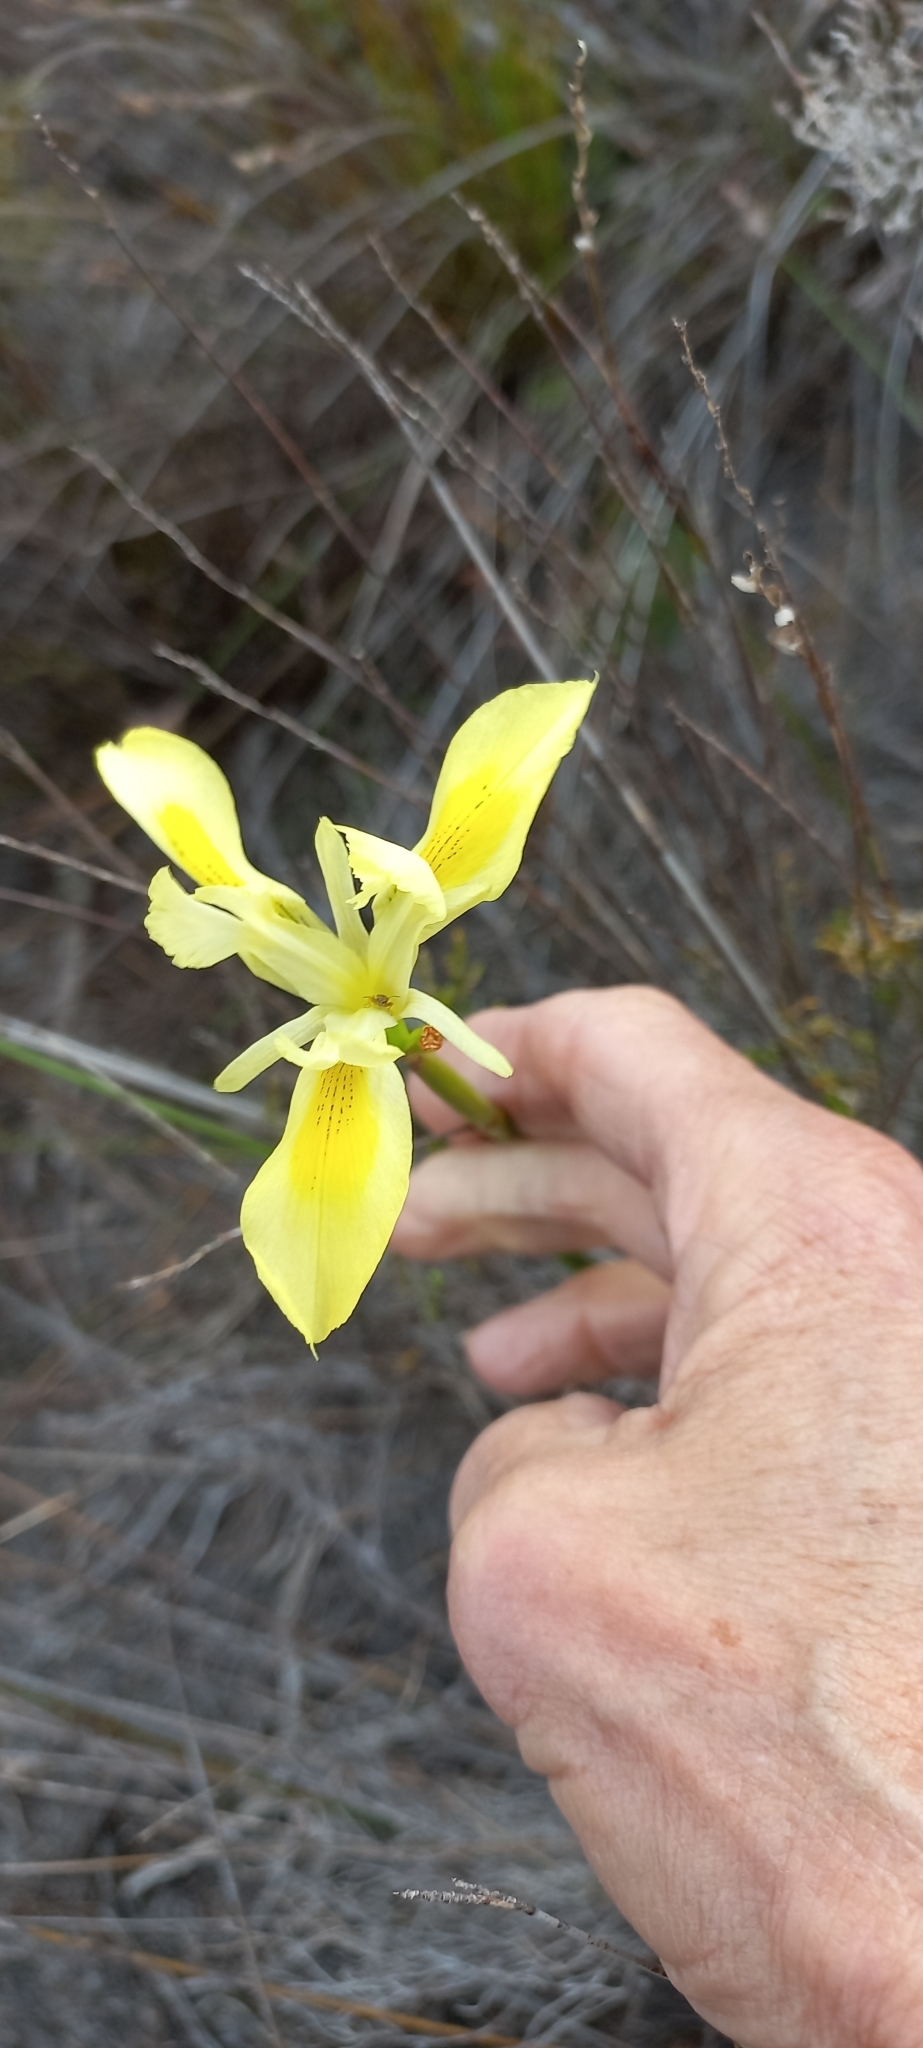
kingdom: Plantae
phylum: Tracheophyta
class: Liliopsida
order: Asparagales
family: Iridaceae
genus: Moraea
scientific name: Moraea neglecta
